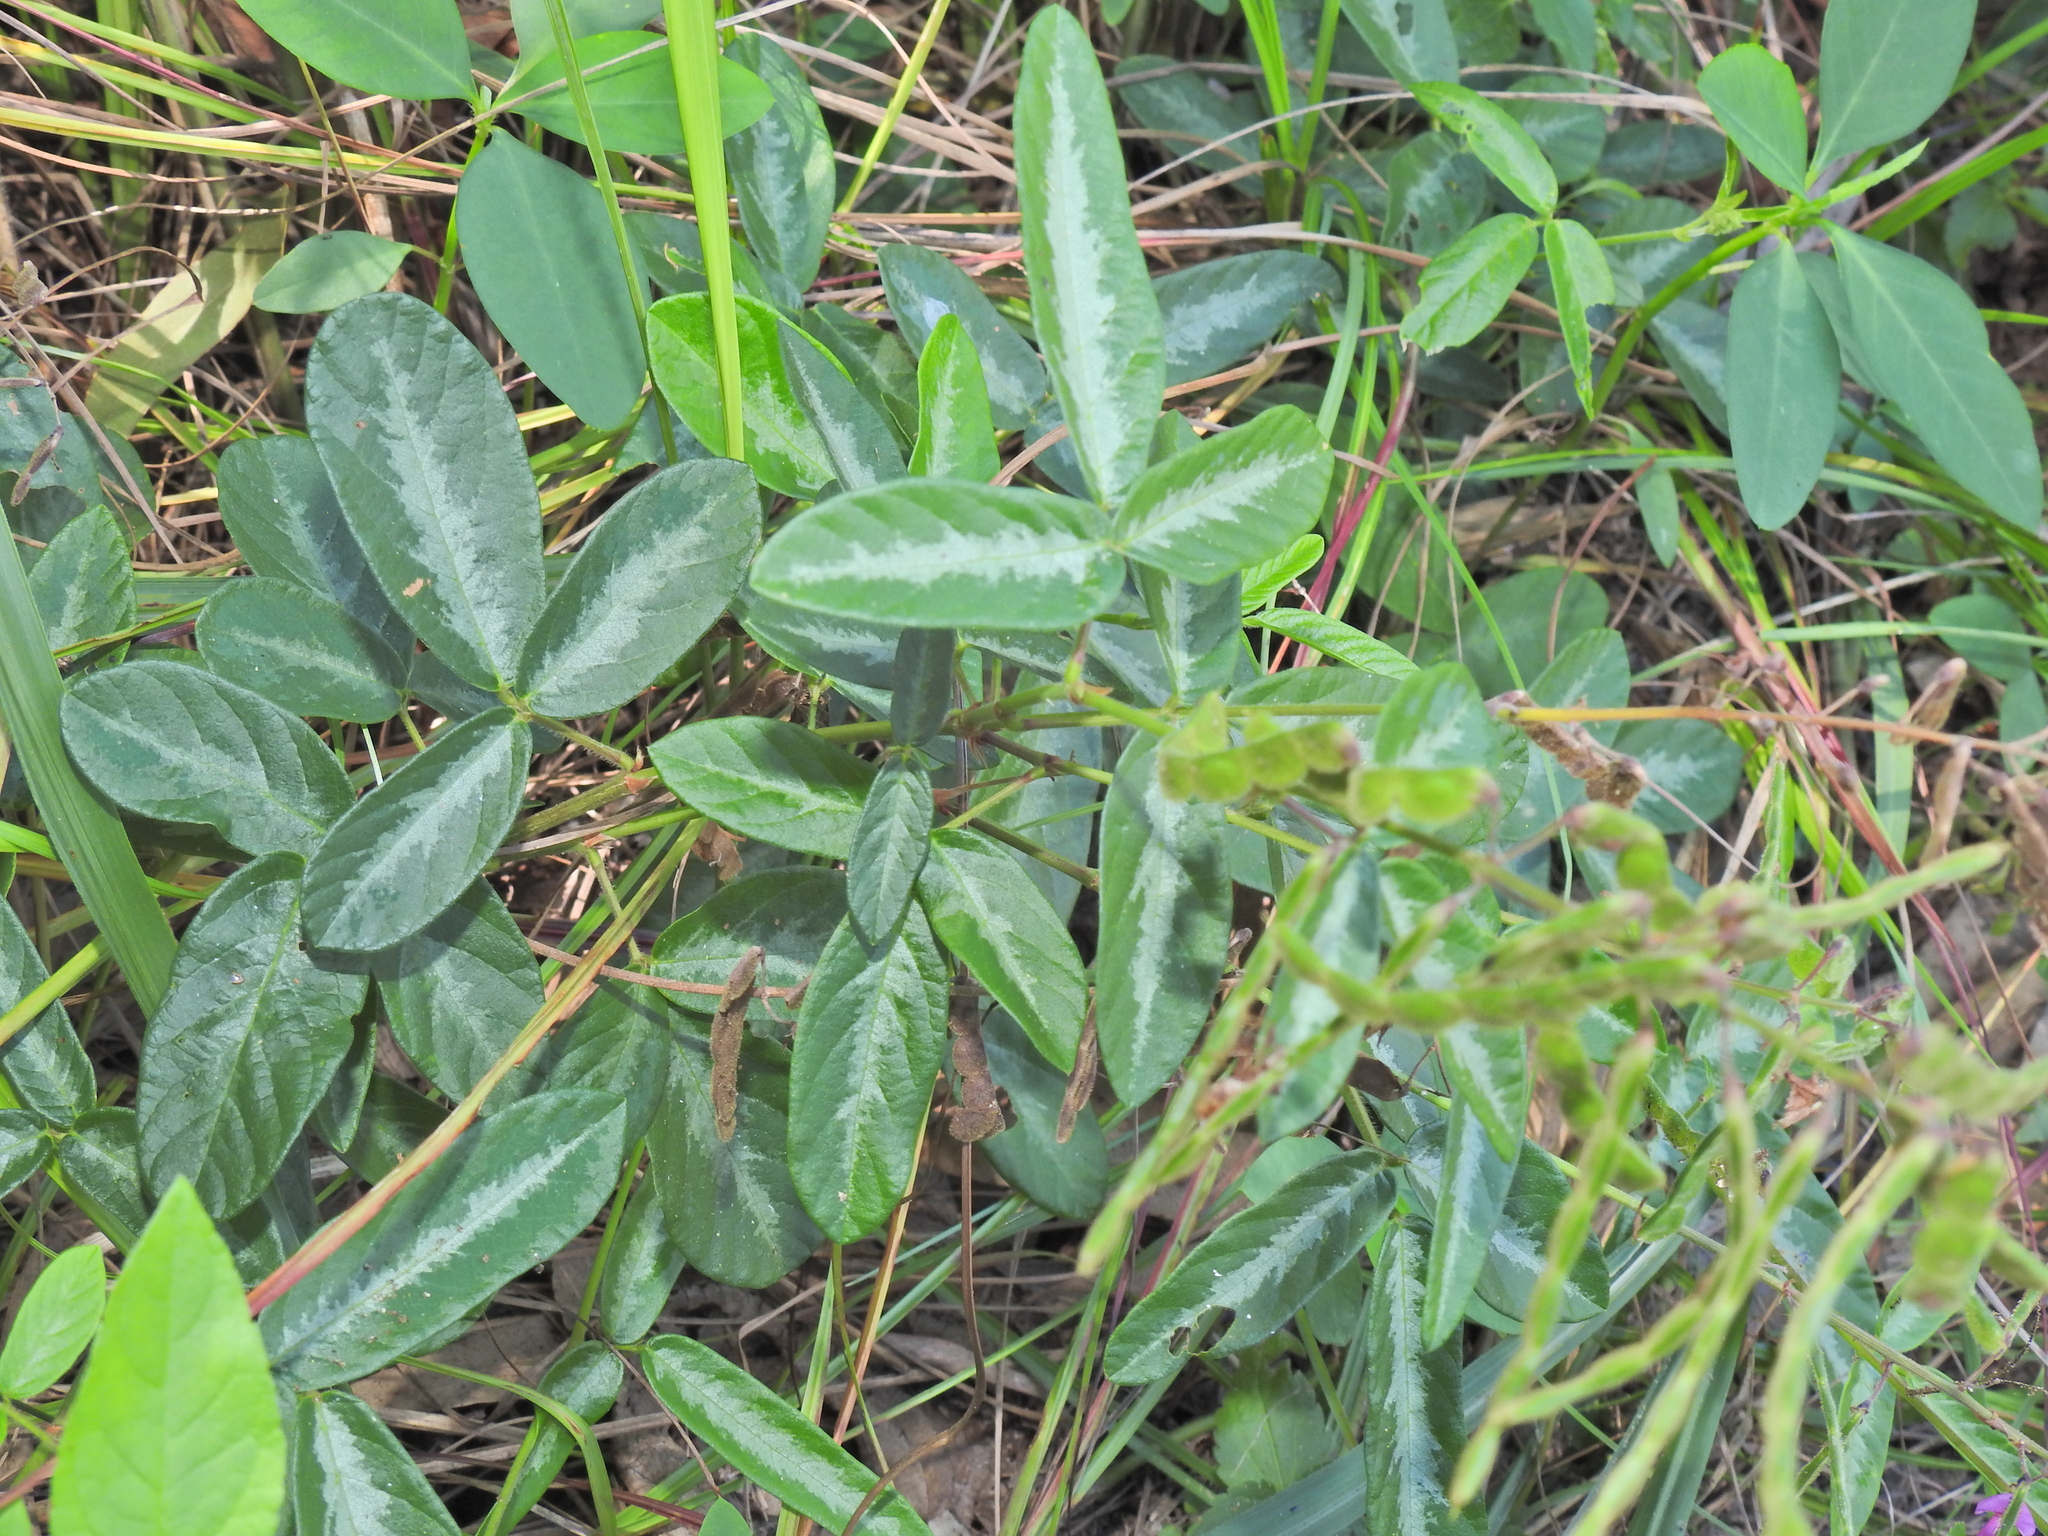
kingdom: Plantae
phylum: Tracheophyta
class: Magnoliopsida
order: Fabales
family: Fabaceae
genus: Desmodium
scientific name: Desmodium incanum
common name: Tickclover
